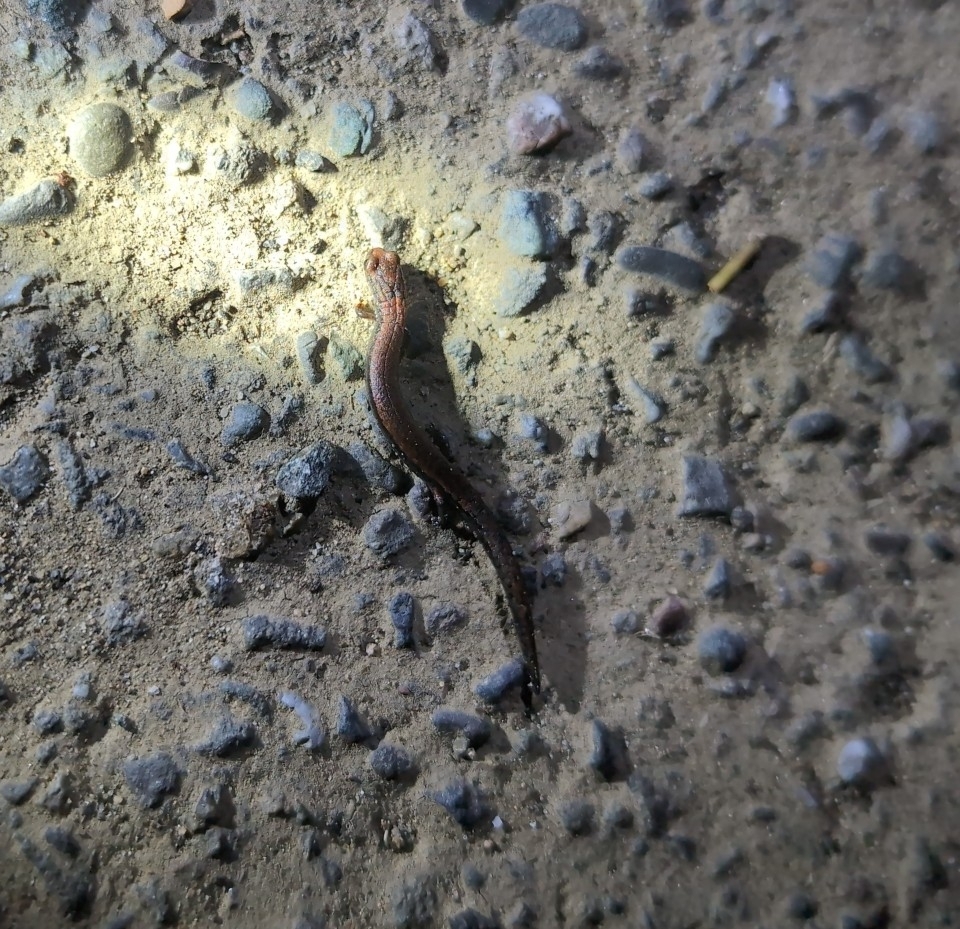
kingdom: Animalia
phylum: Chordata
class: Amphibia
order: Caudata
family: Plethodontidae
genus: Batrachoseps
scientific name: Batrachoseps attenuatus
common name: California slender salamander
